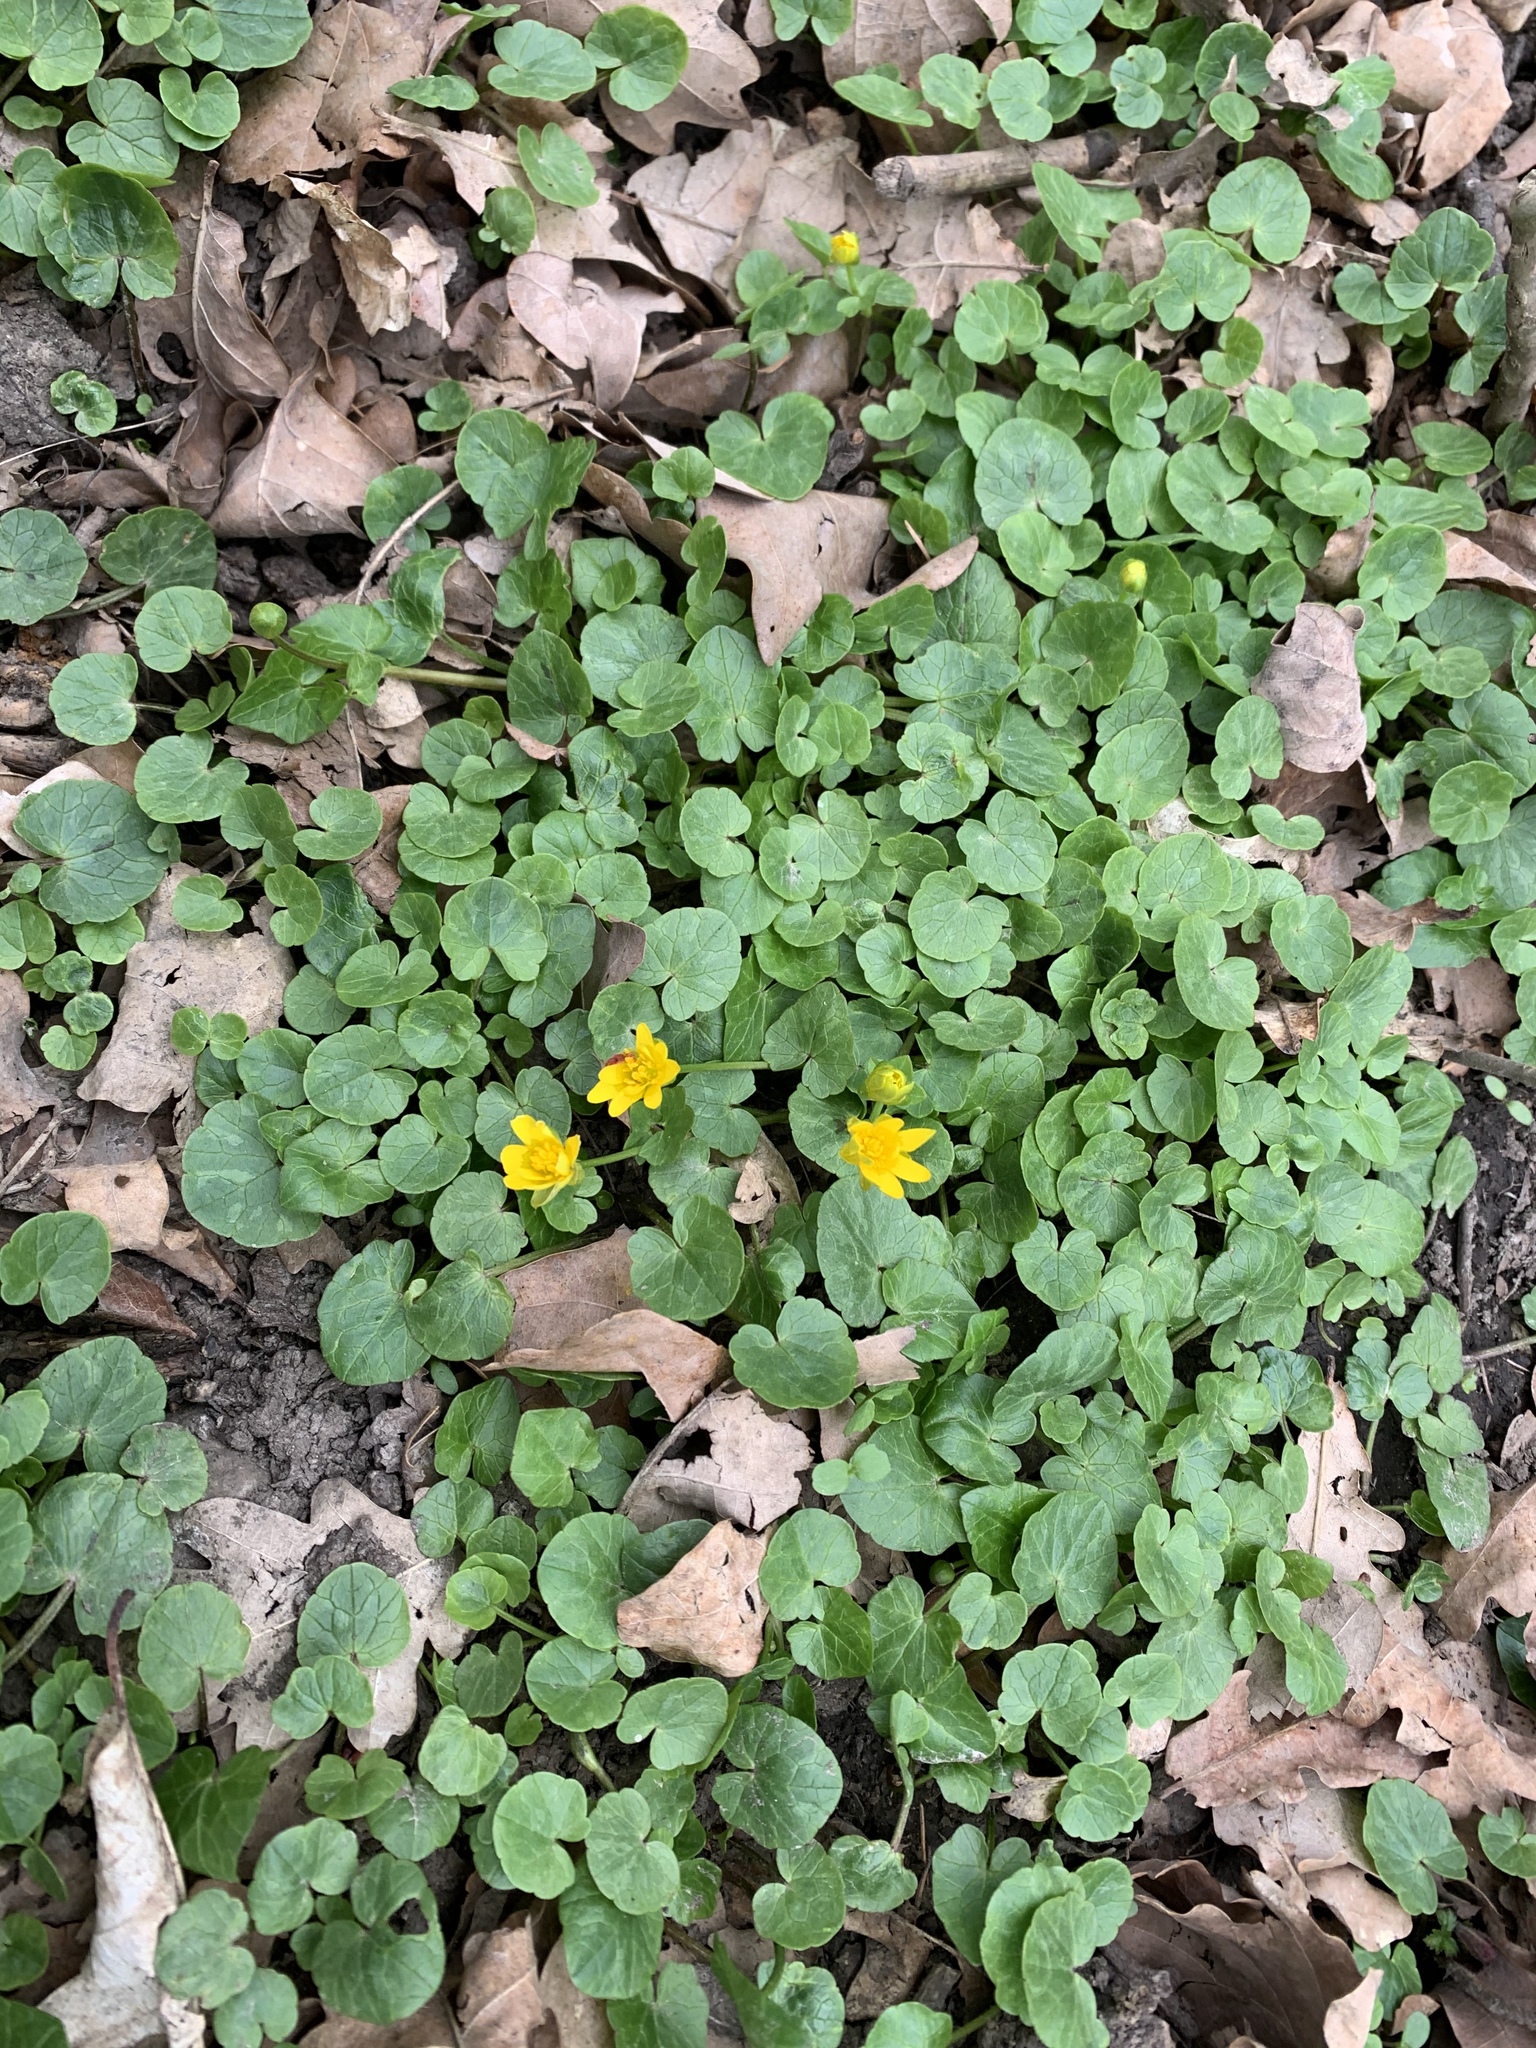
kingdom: Plantae
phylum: Tracheophyta
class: Magnoliopsida
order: Ranunculales
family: Ranunculaceae
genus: Ficaria
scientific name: Ficaria verna
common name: Lesser celandine
